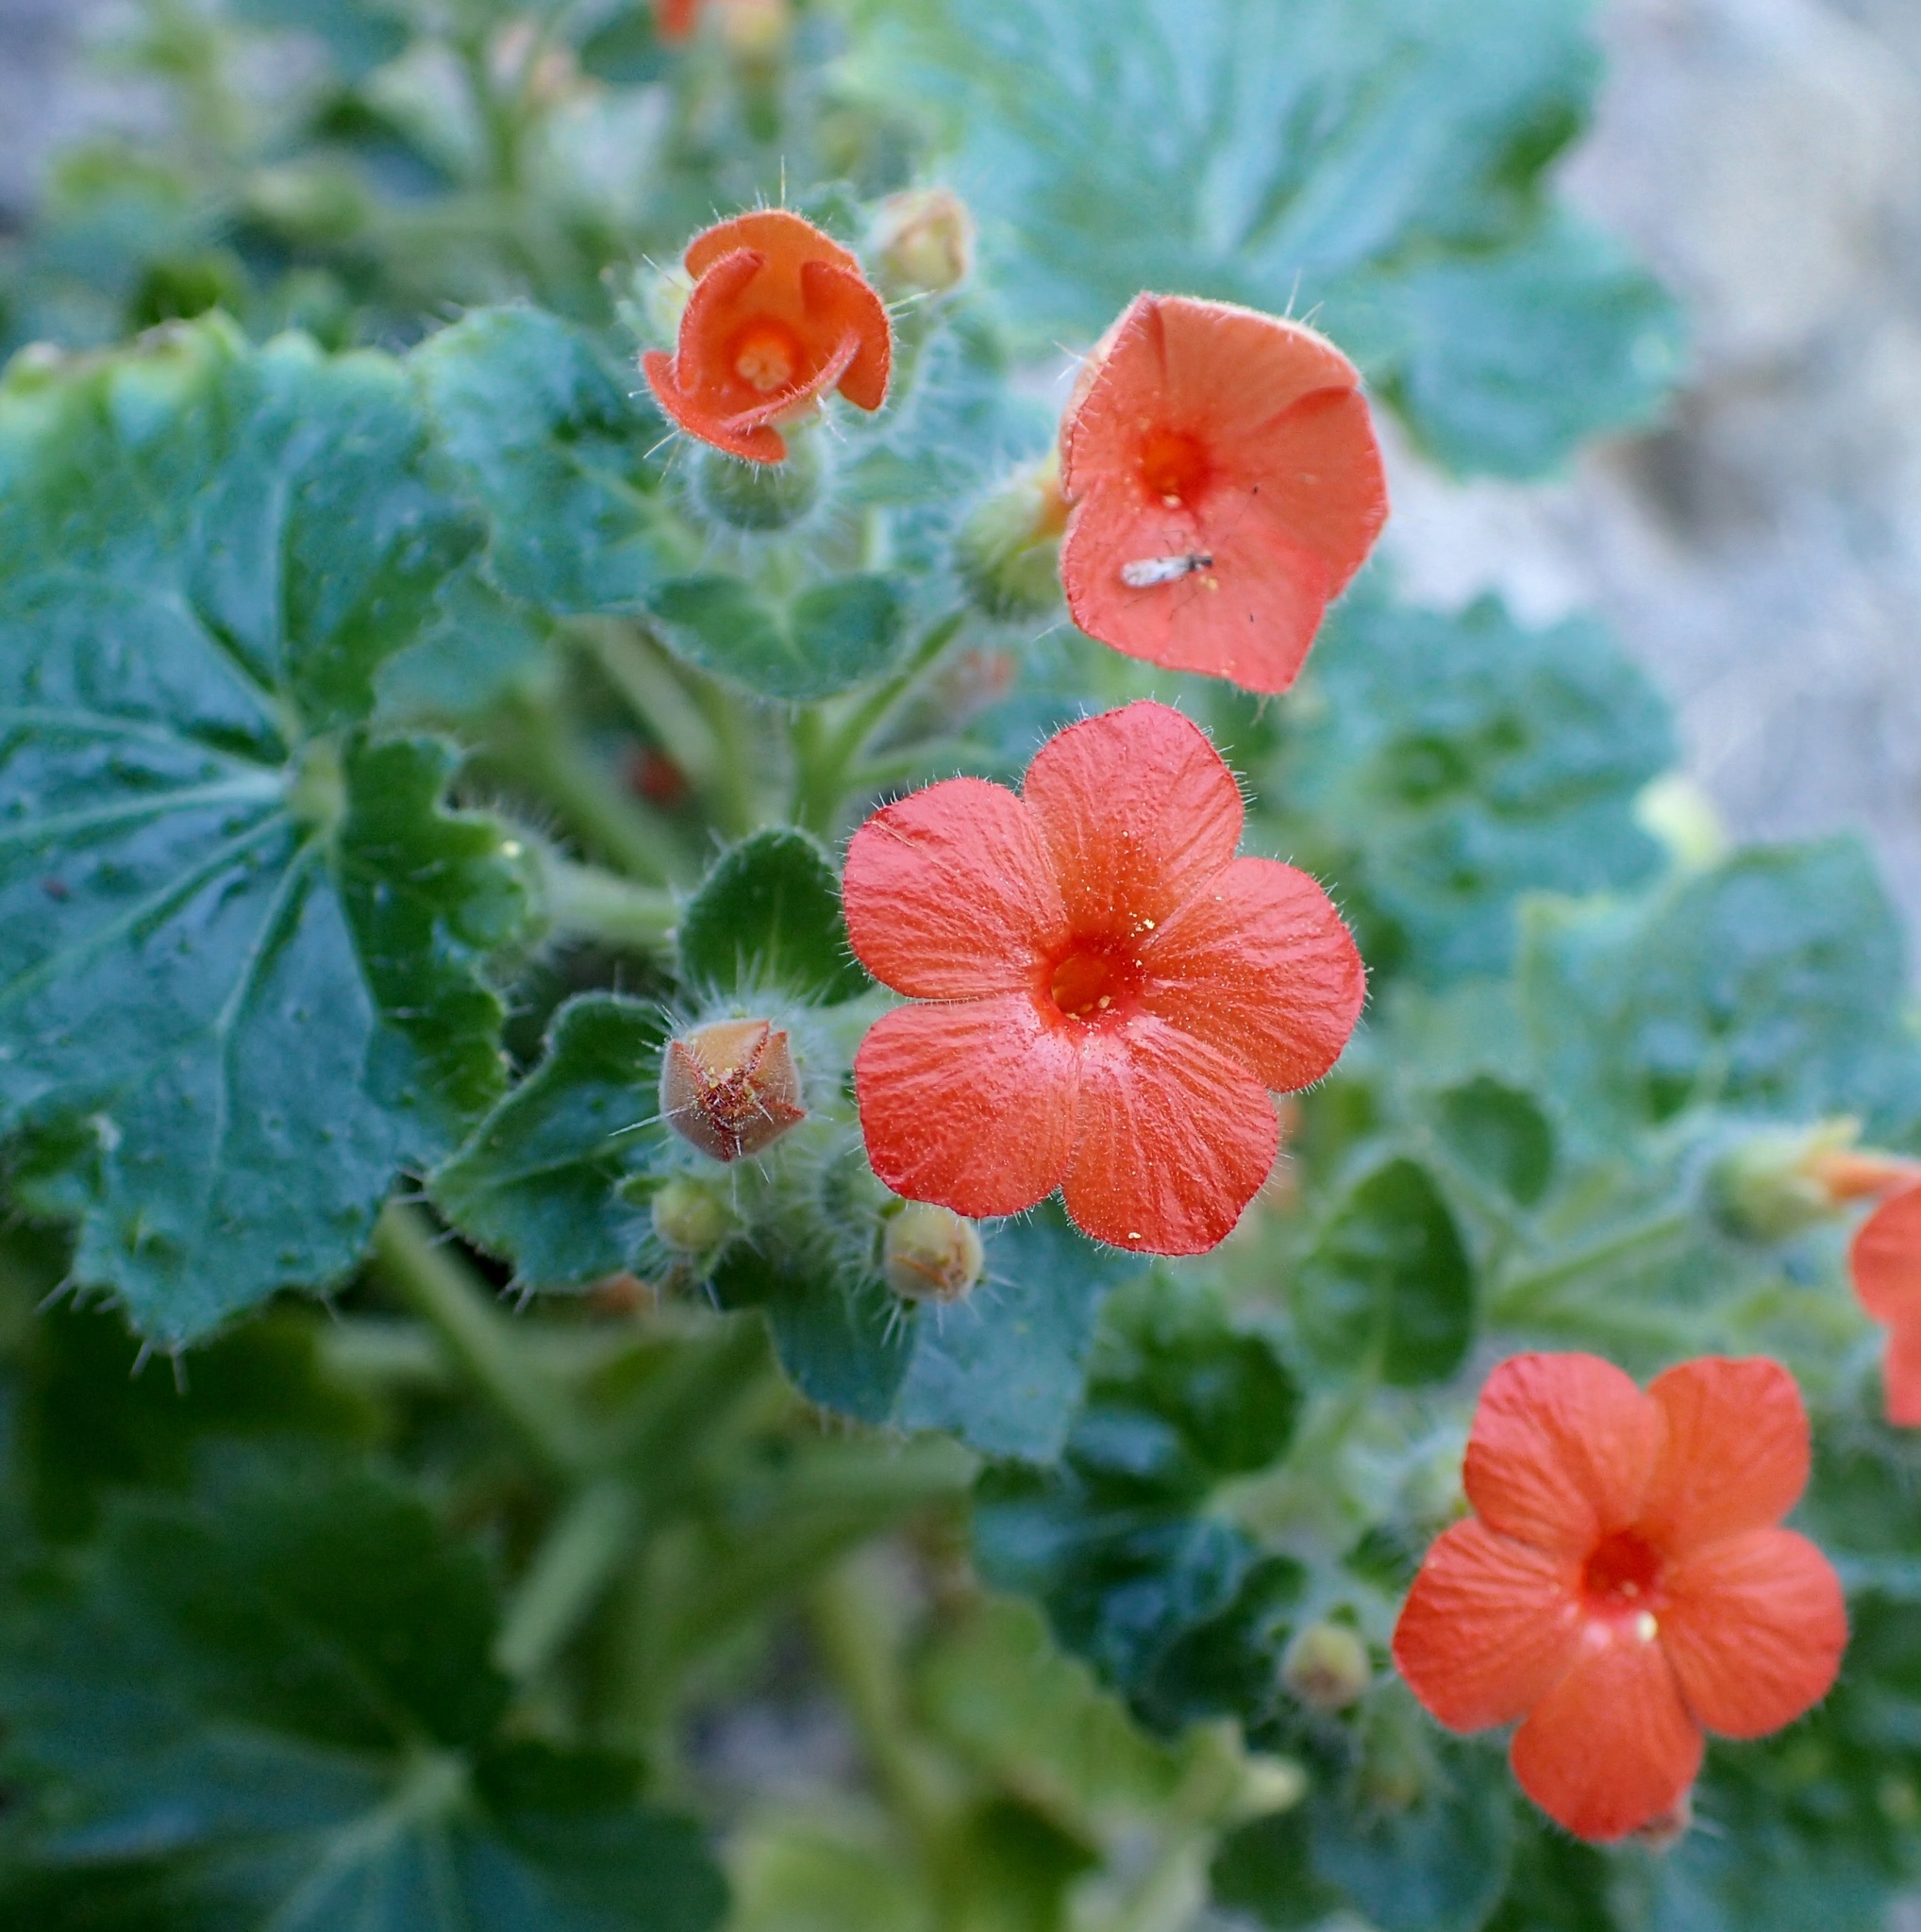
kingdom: Plantae
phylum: Tracheophyta
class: Magnoliopsida
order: Cornales
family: Loasaceae
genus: Eucnide
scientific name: Eucnide aurea
